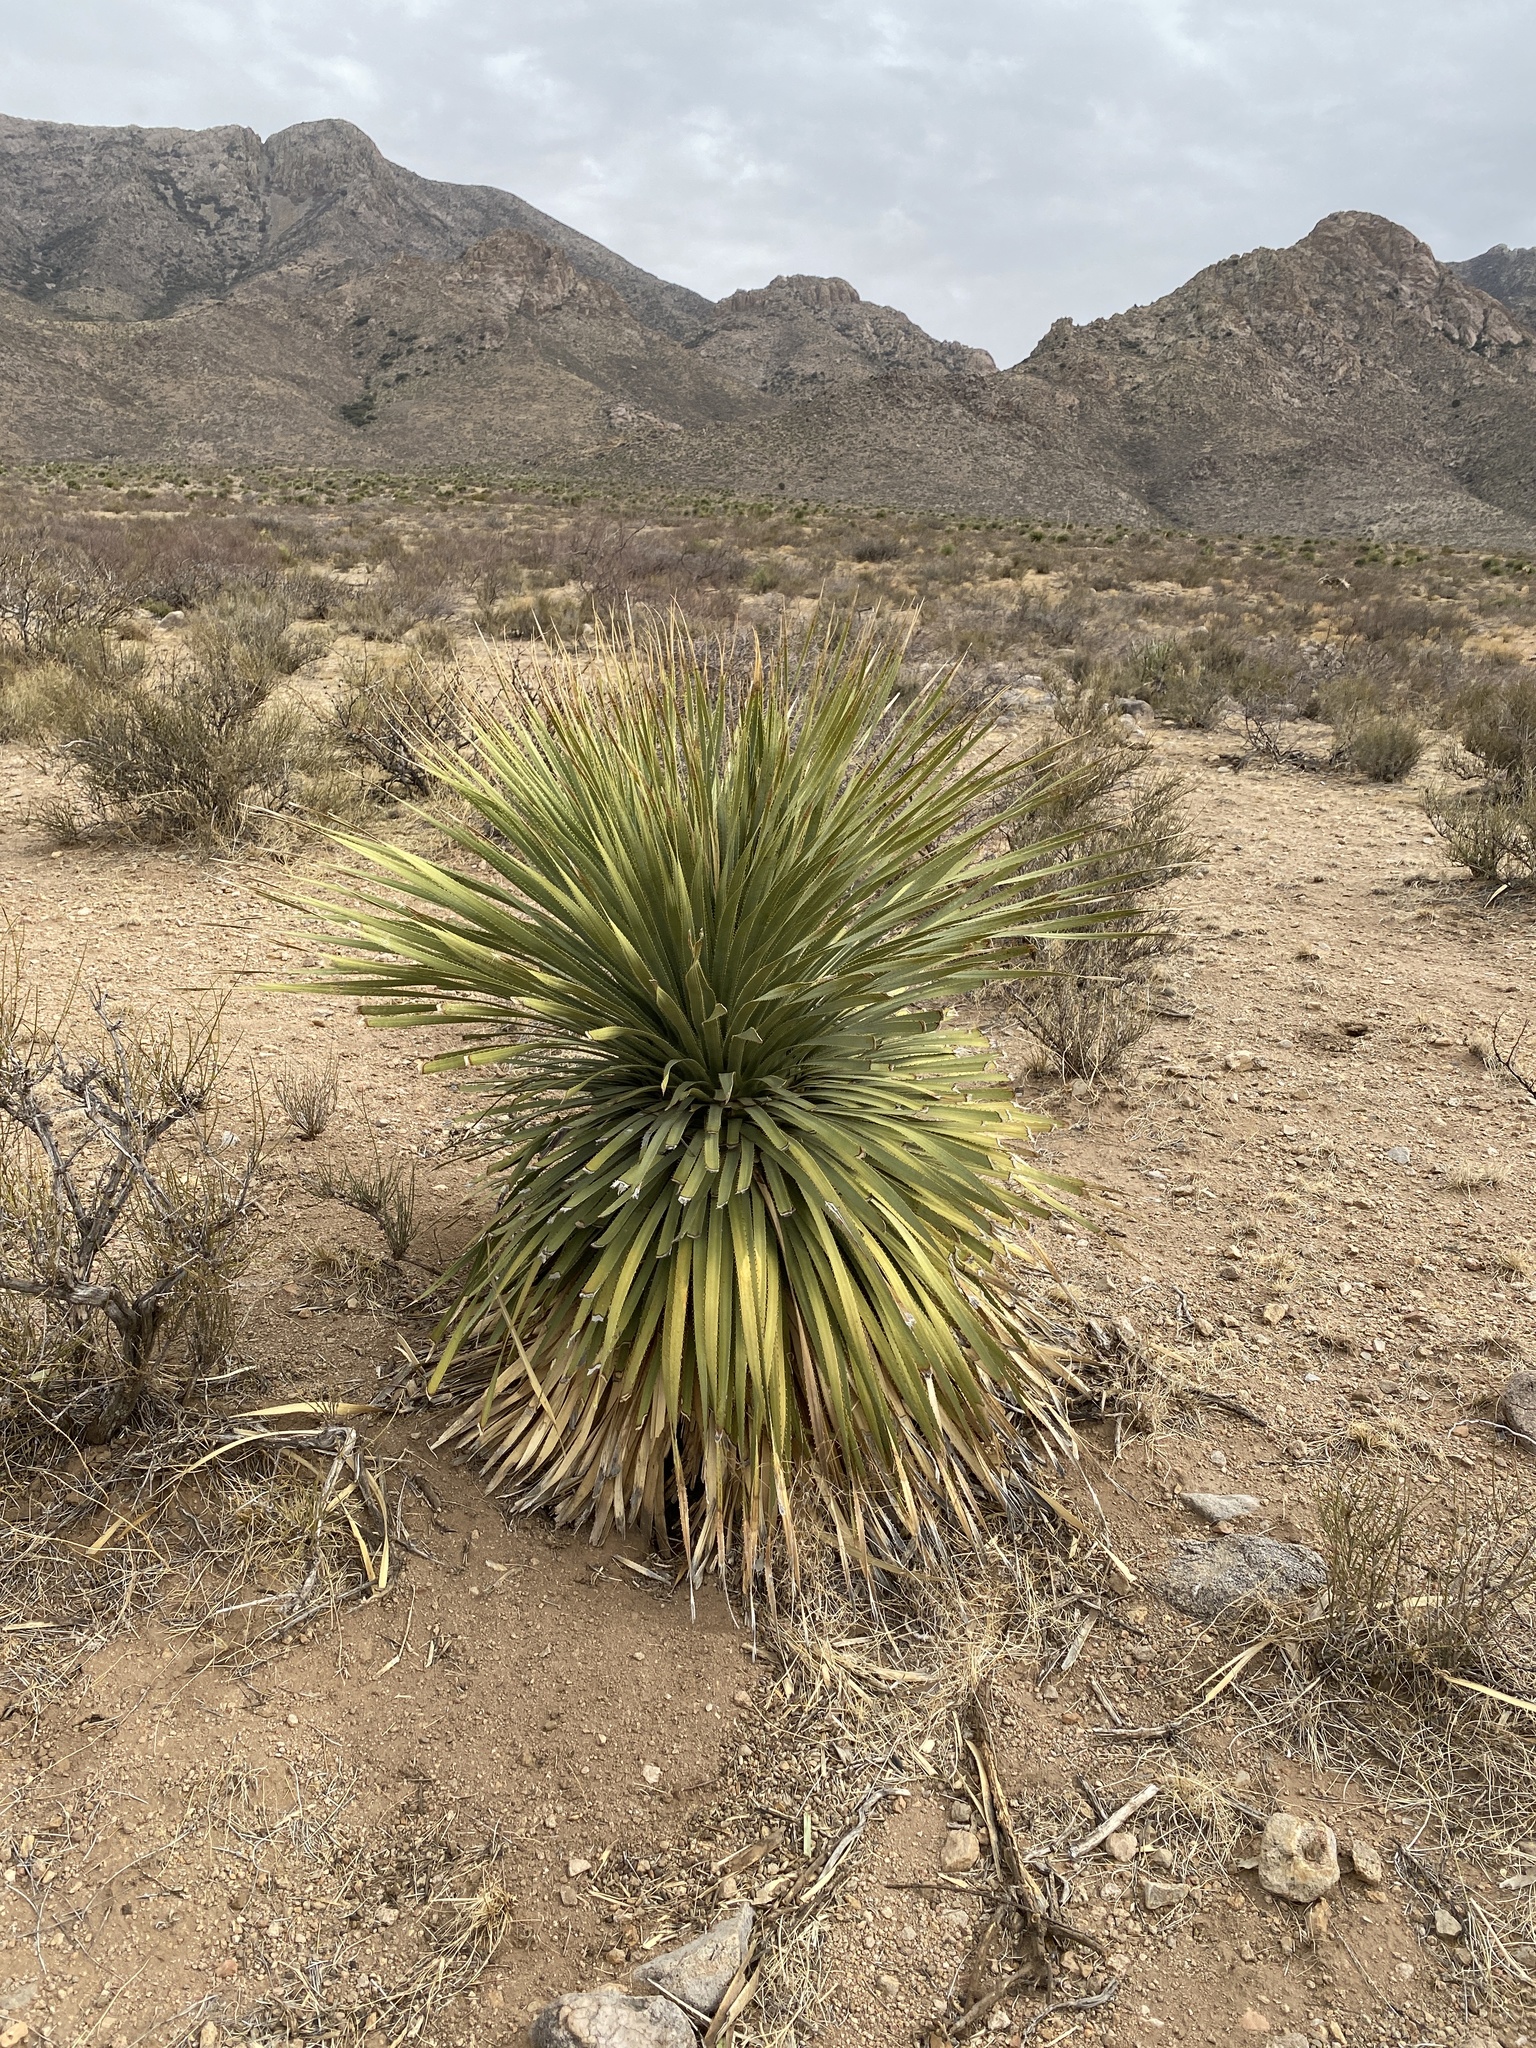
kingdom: Plantae
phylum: Tracheophyta
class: Liliopsida
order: Asparagales
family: Asparagaceae
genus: Dasylirion
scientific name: Dasylirion wheeleri
